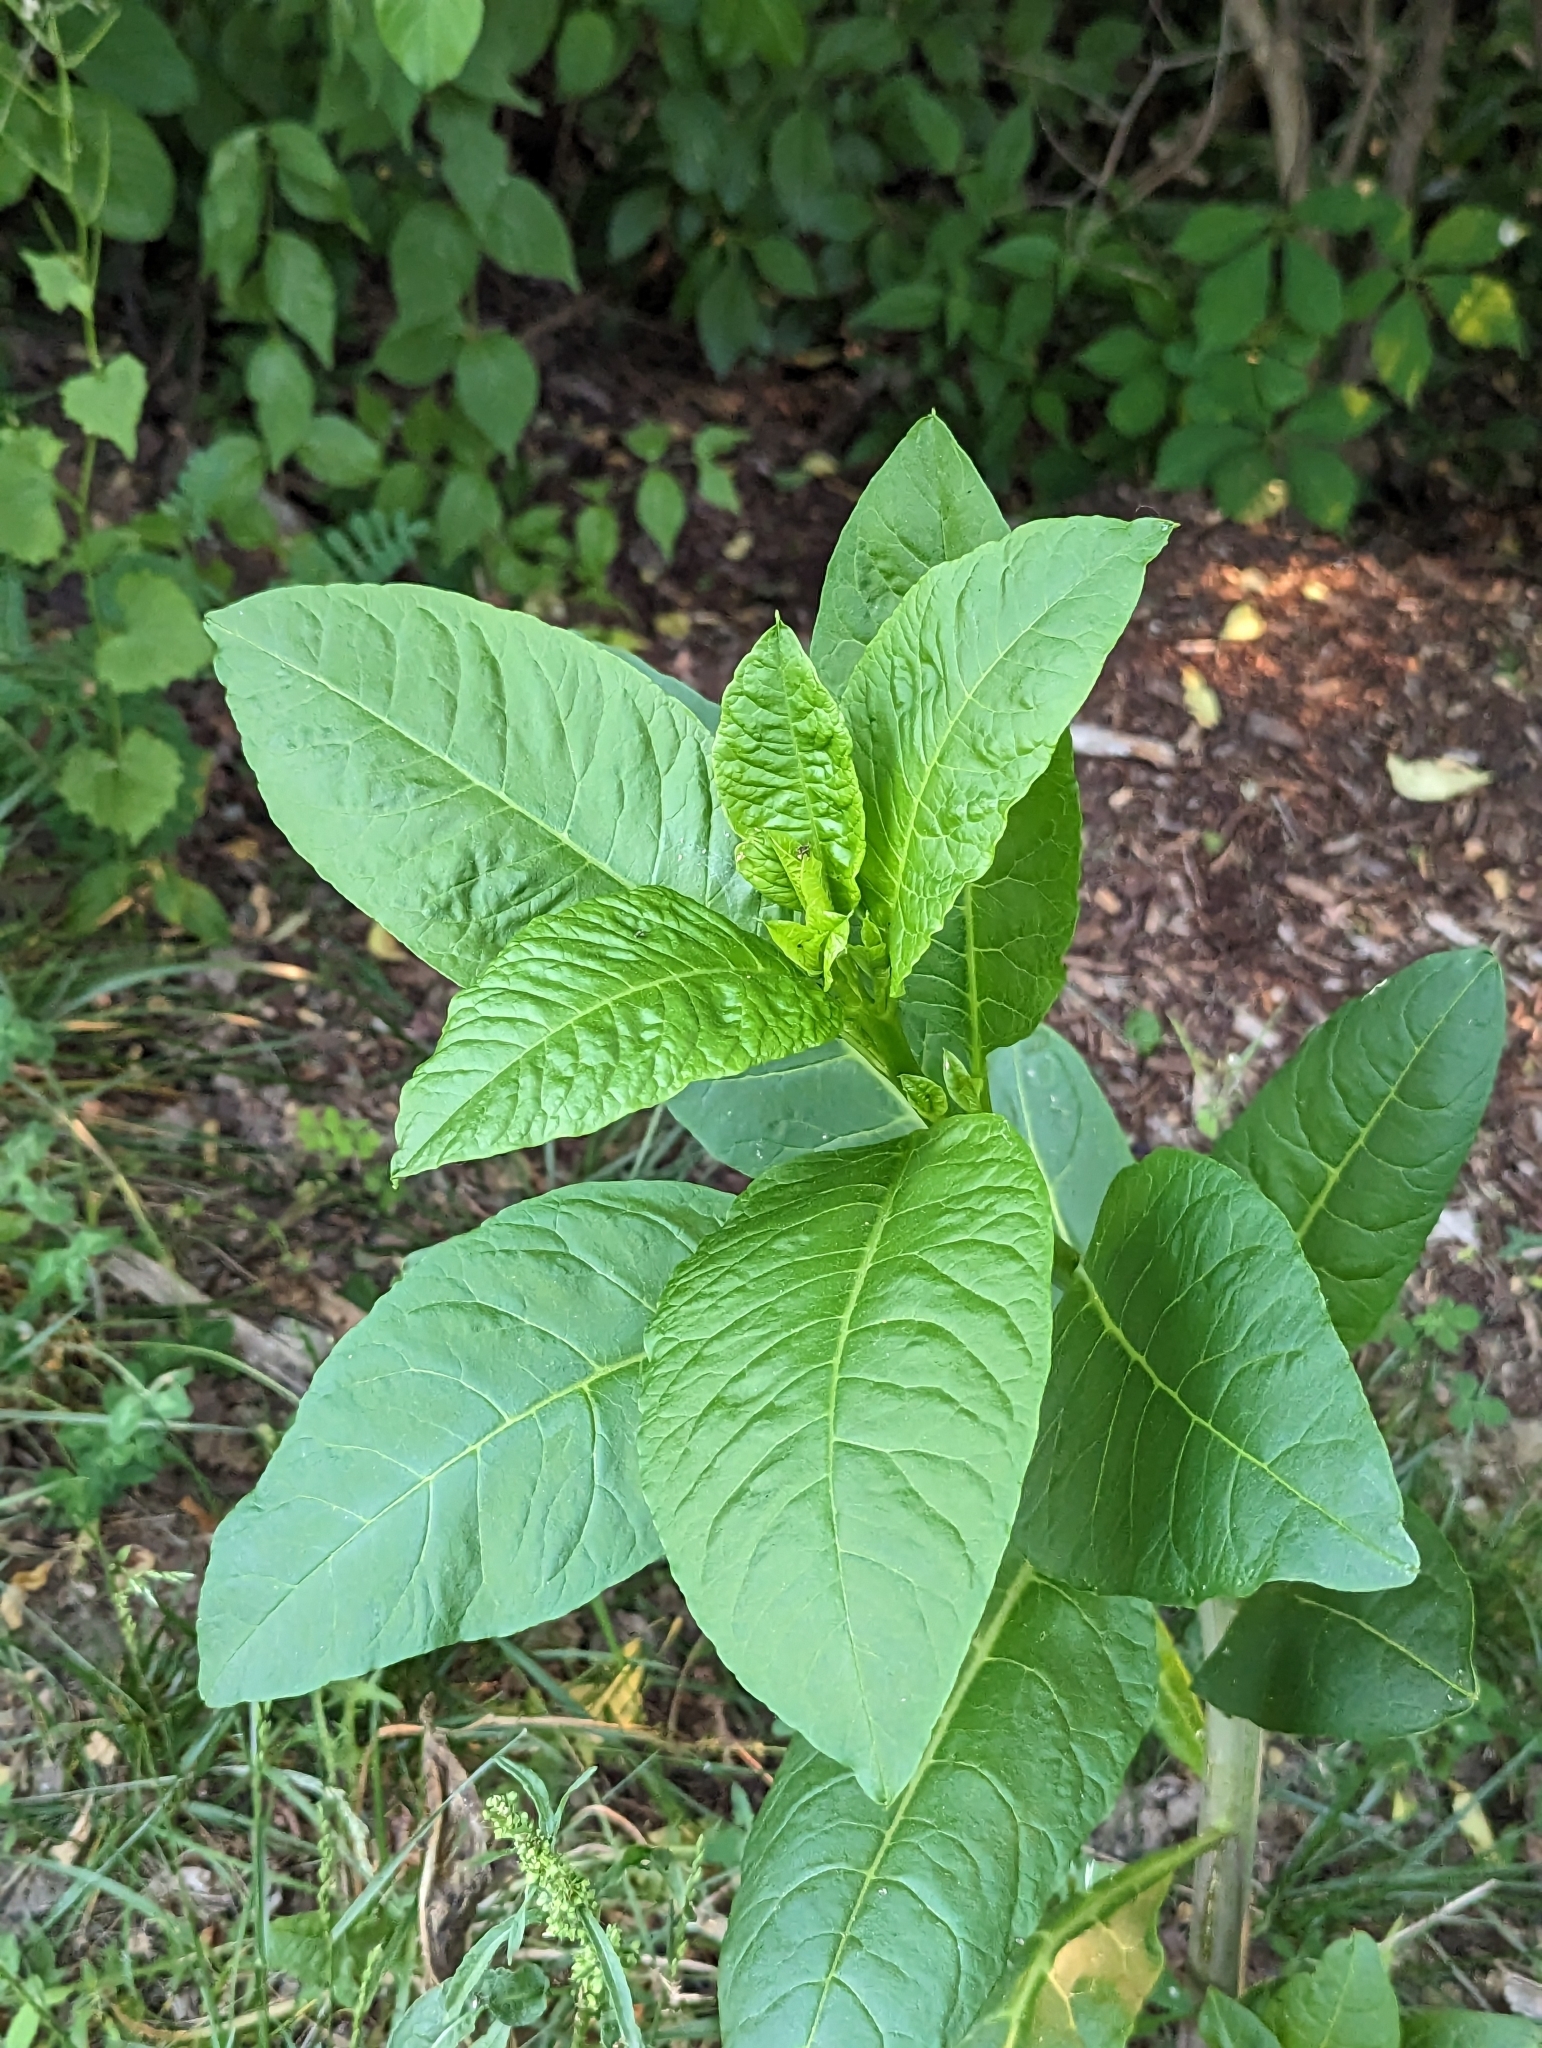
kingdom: Plantae
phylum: Tracheophyta
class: Magnoliopsida
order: Caryophyllales
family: Phytolaccaceae
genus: Phytolacca
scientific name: Phytolacca americana
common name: American pokeweed
